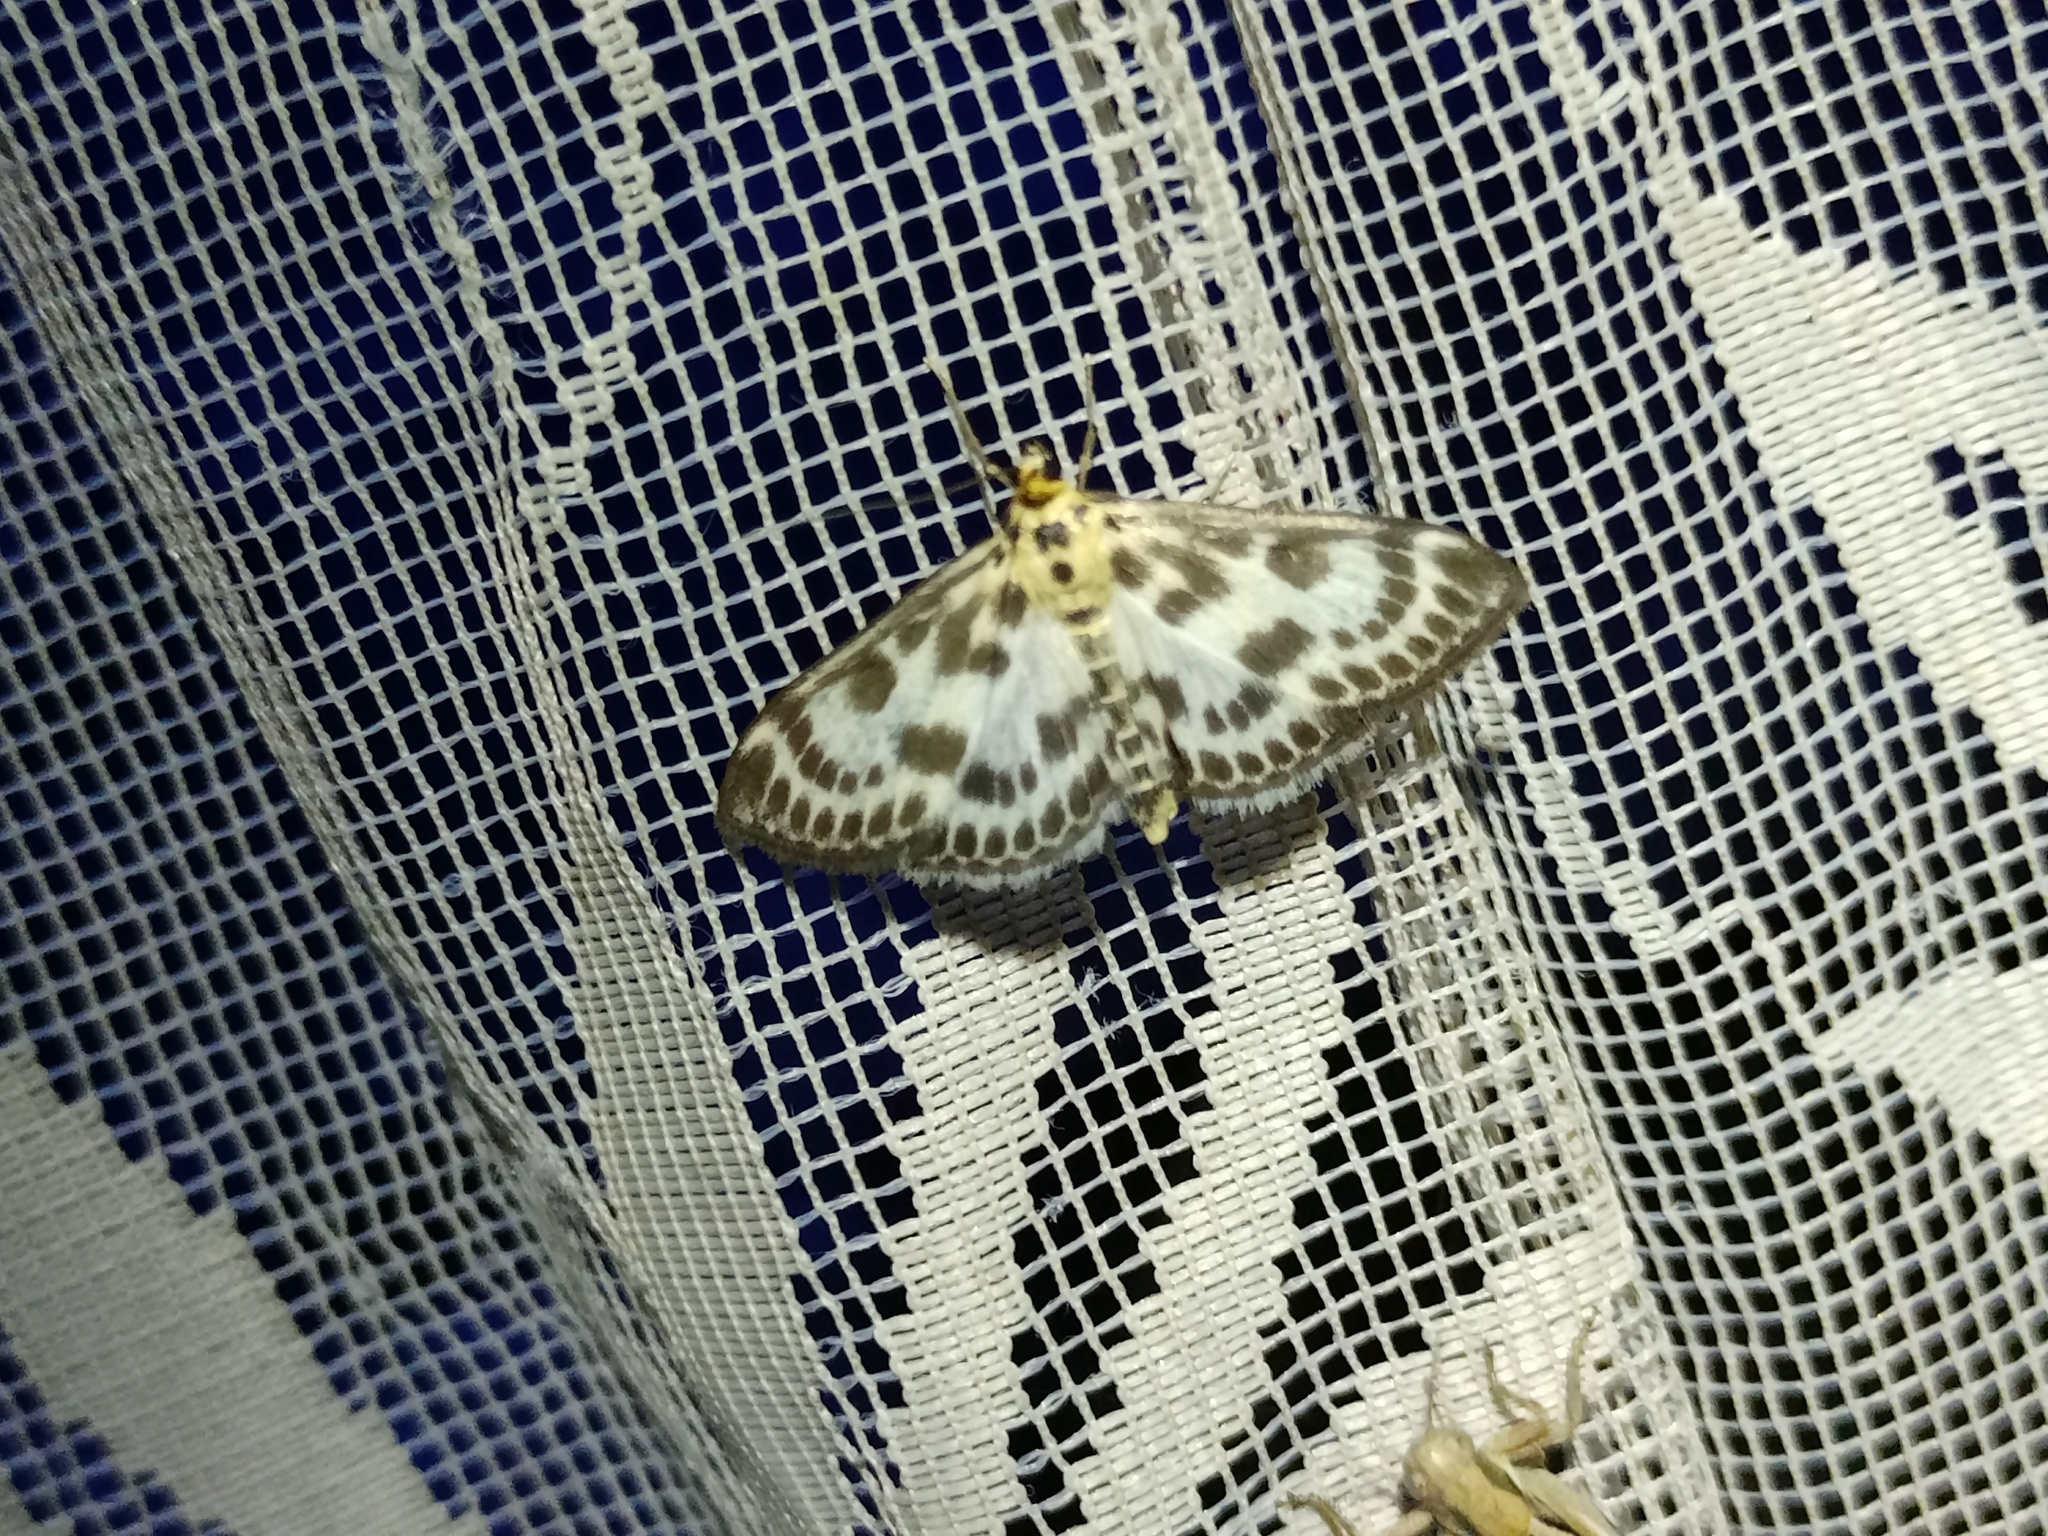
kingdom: Animalia
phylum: Arthropoda
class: Insecta
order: Lepidoptera
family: Crambidae
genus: Anania
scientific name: Anania hortulata
